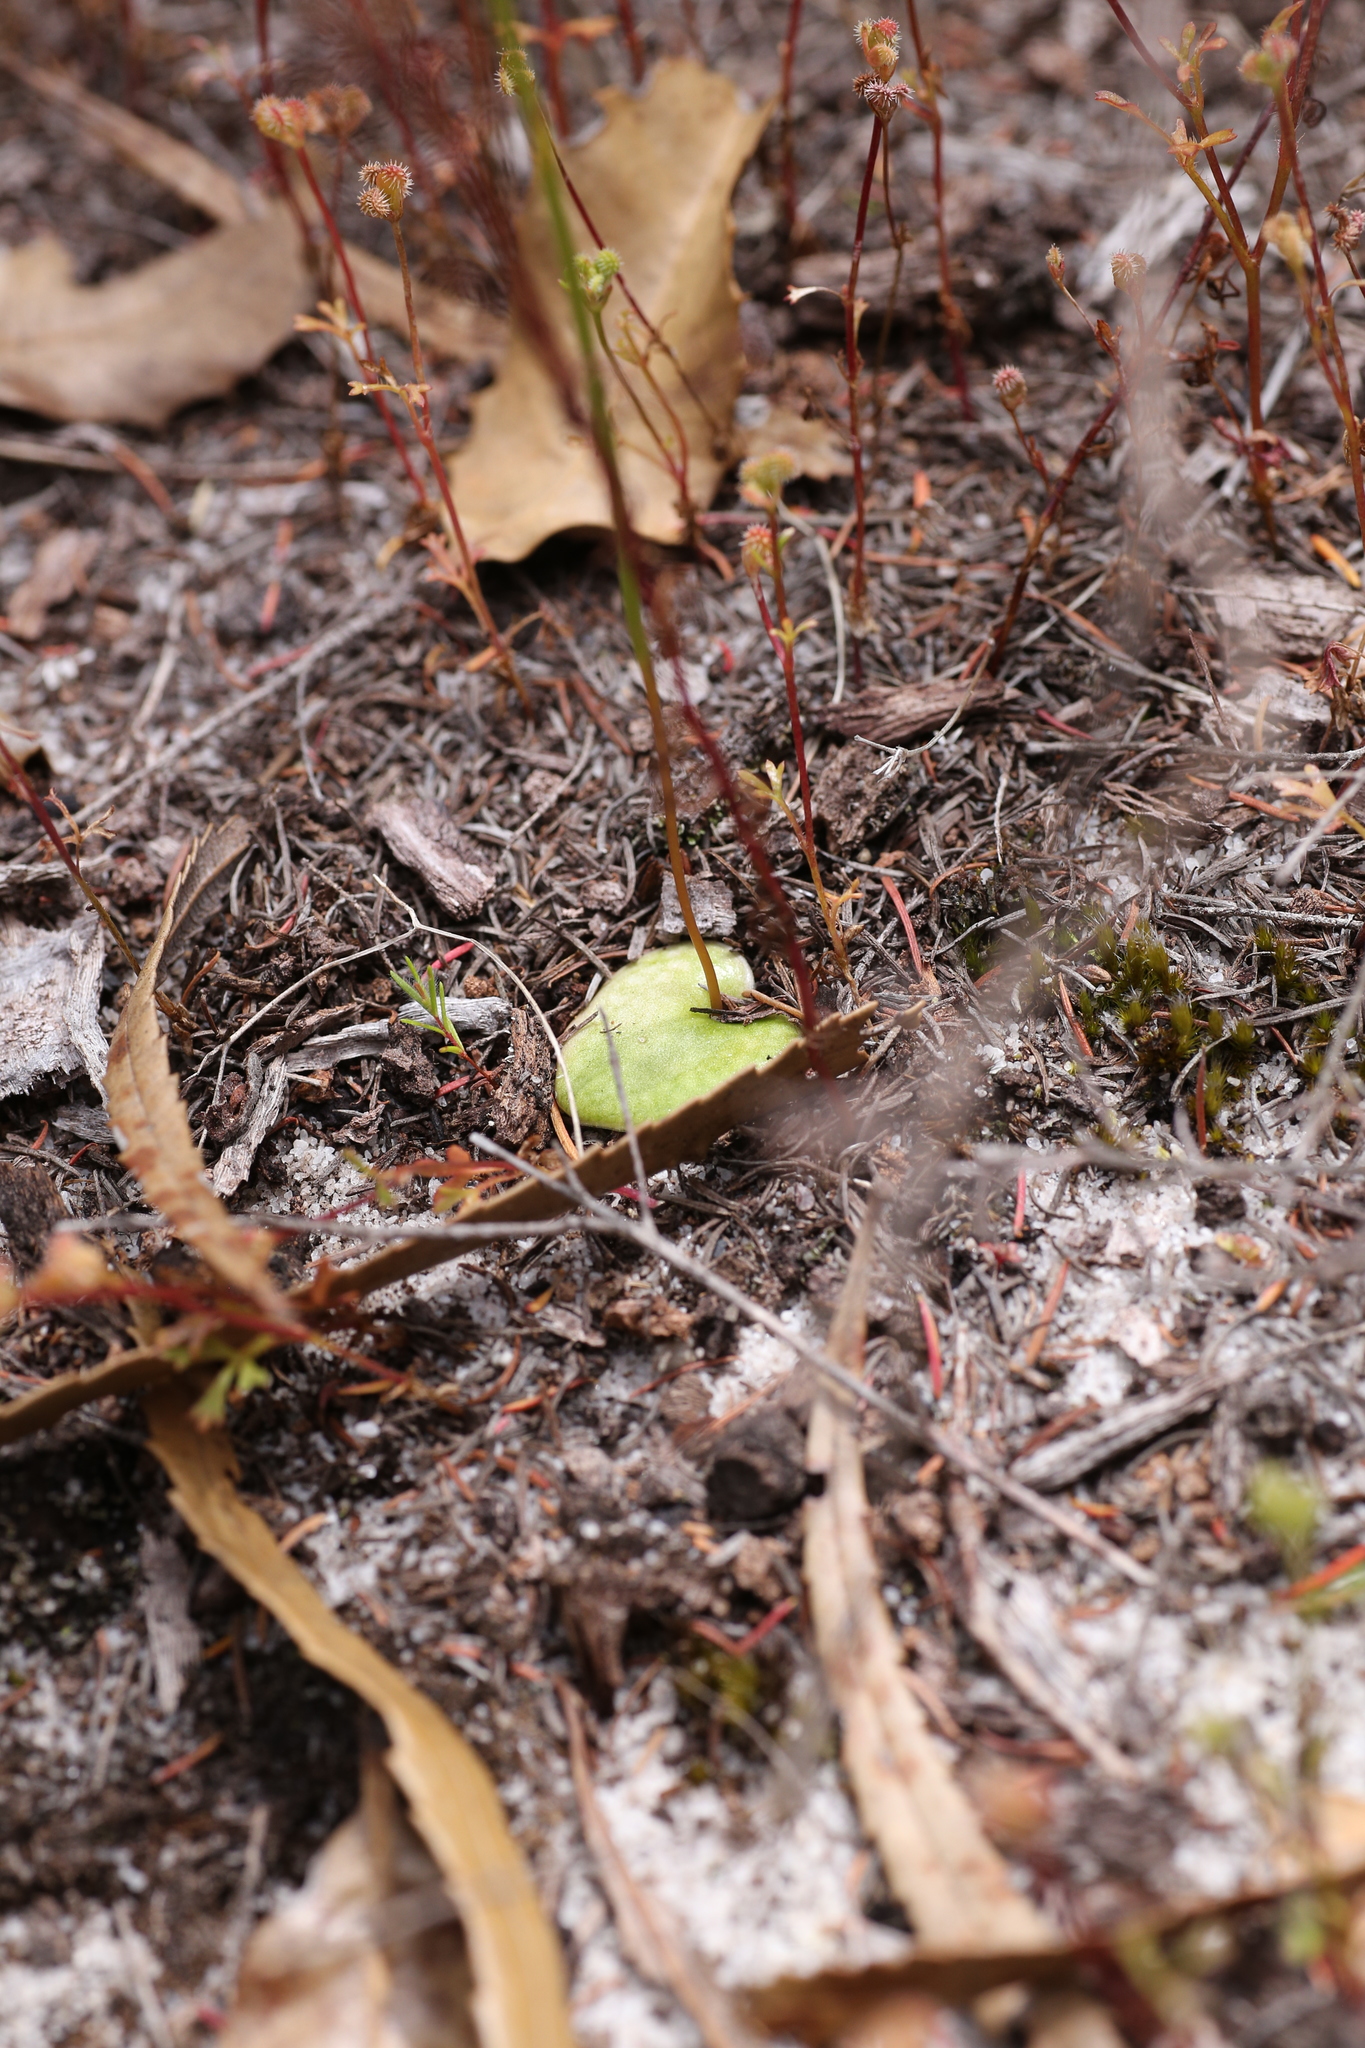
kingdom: Plantae
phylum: Tracheophyta
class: Liliopsida
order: Asparagales
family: Orchidaceae
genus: Drakaea
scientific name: Drakaea elastica
